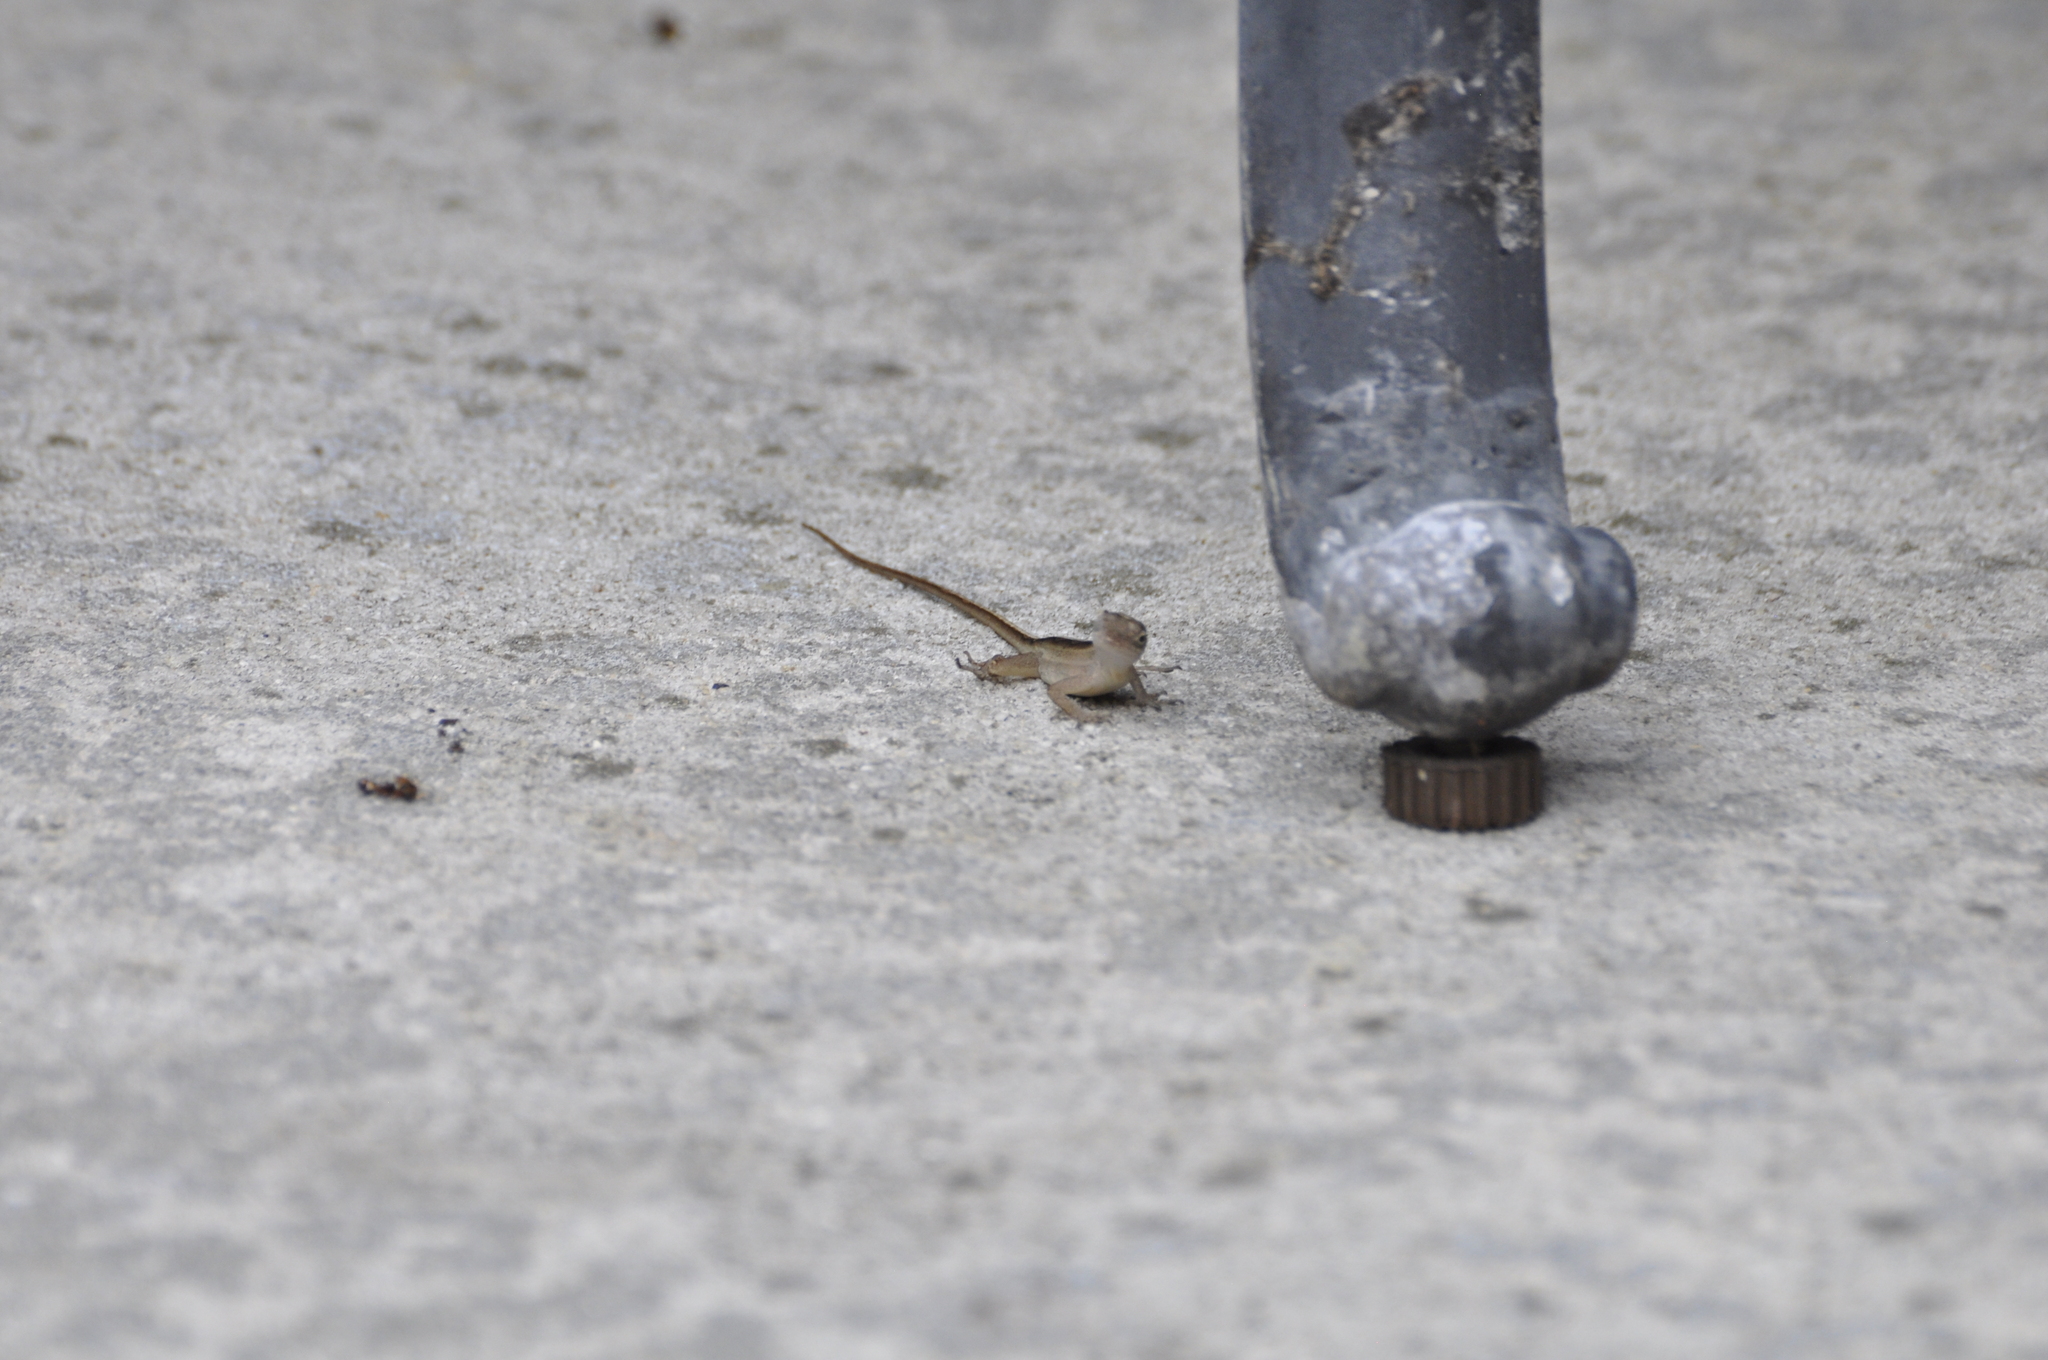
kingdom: Animalia
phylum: Chordata
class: Squamata
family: Dactyloidae
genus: Anolis
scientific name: Anolis sagrei
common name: Brown anole
